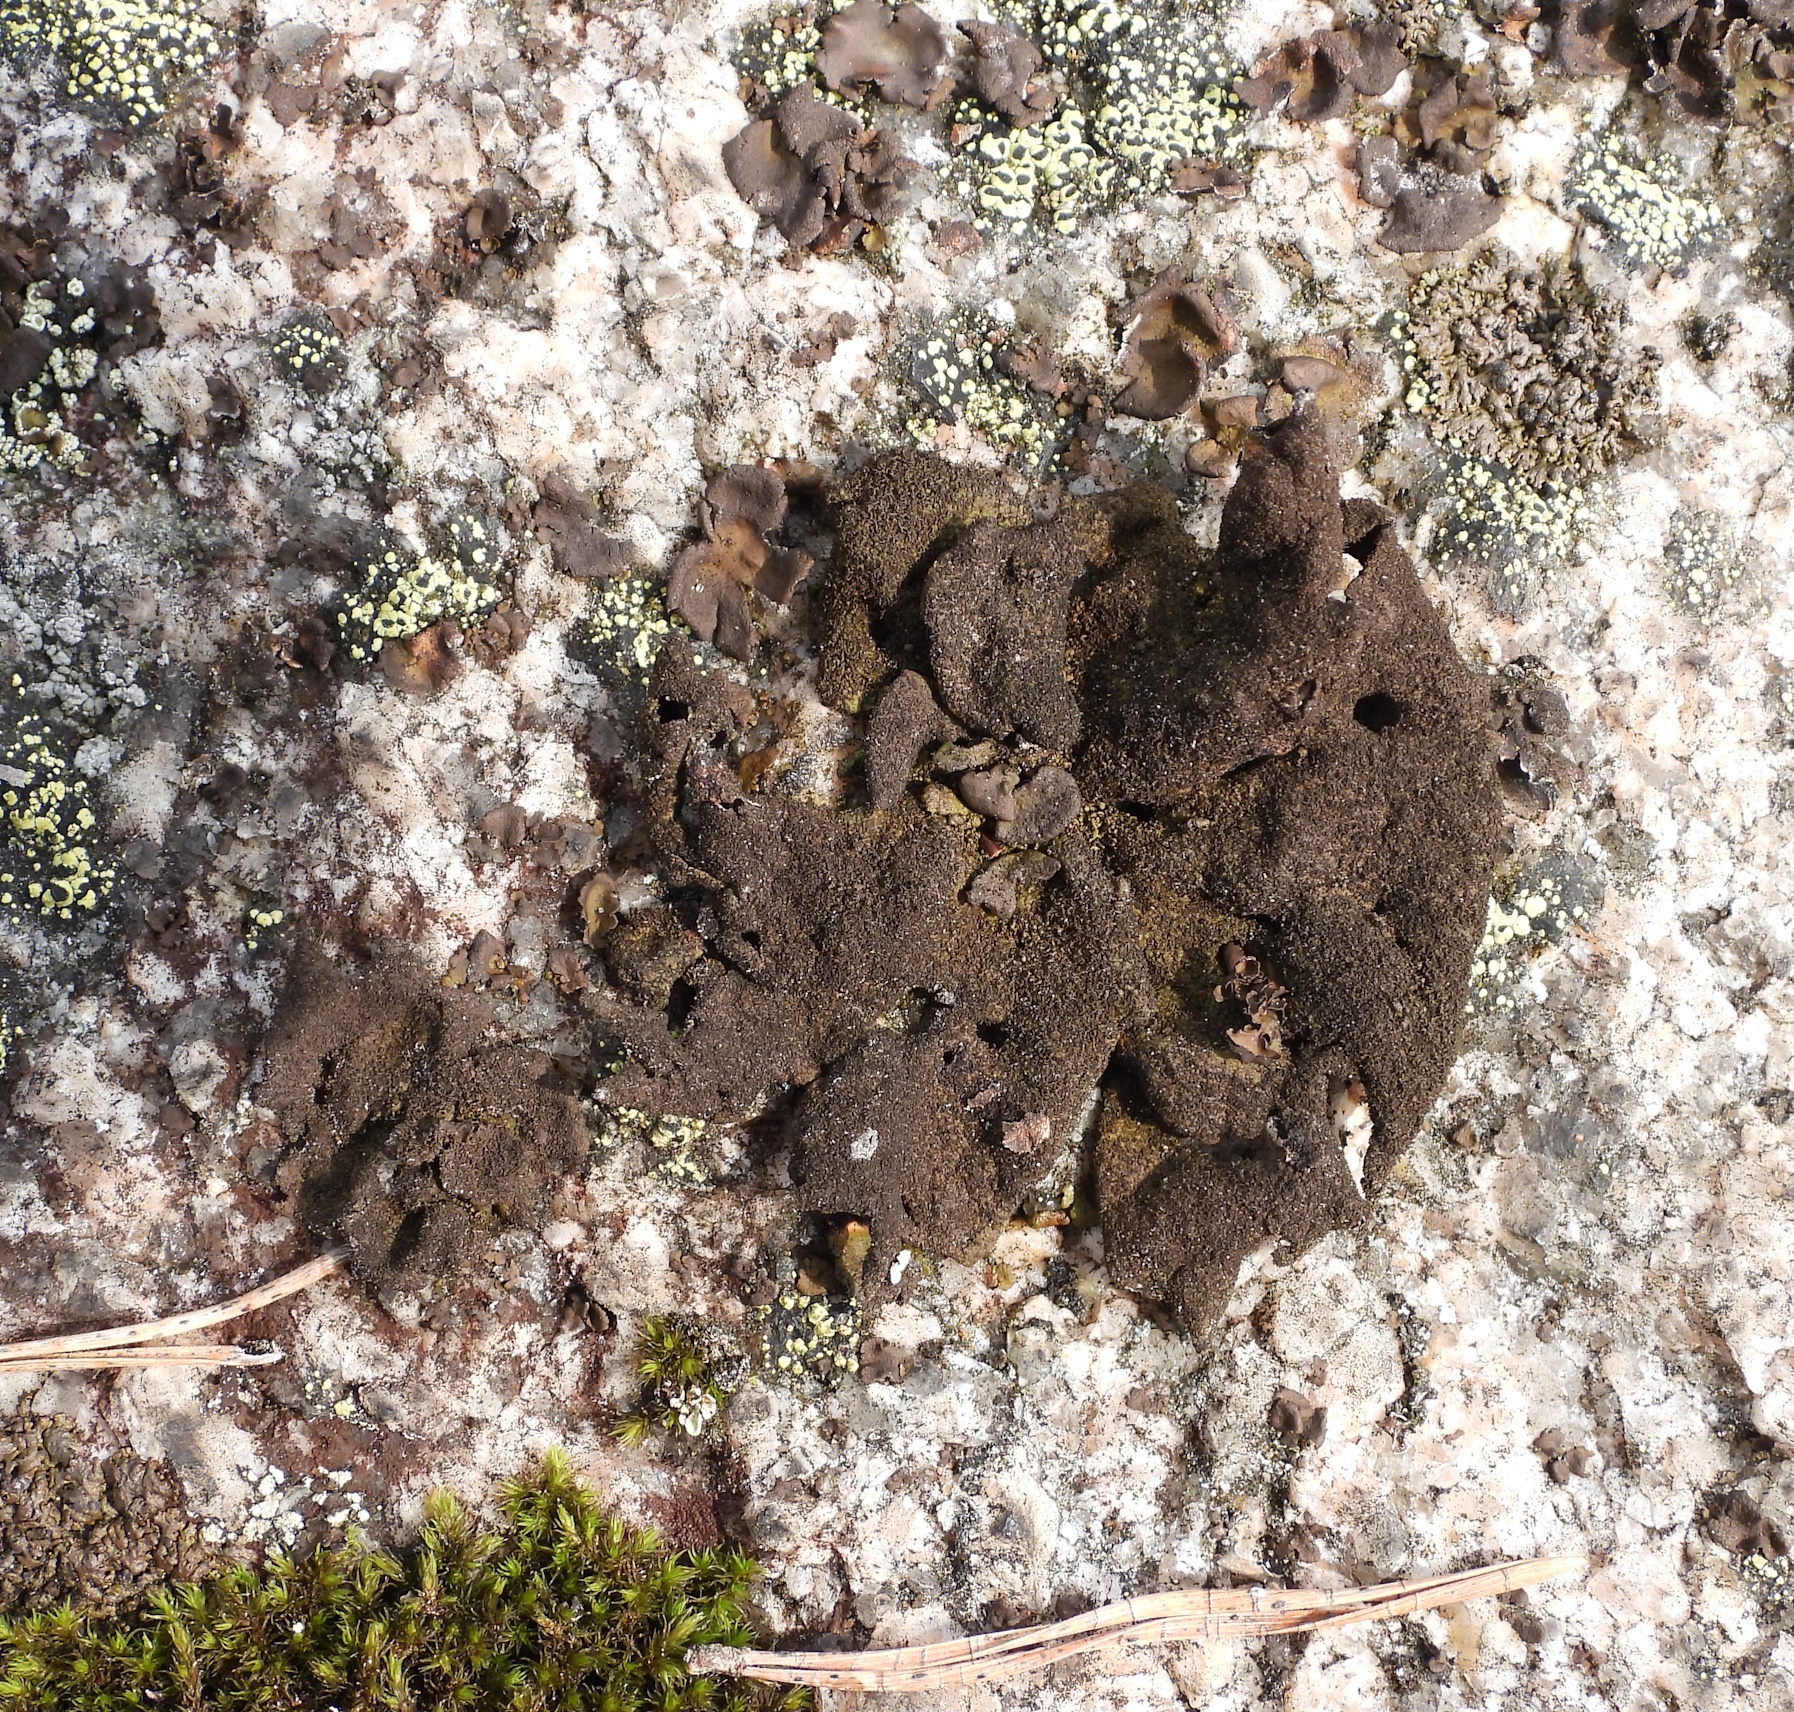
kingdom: Fungi
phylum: Ascomycota
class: Lecanoromycetes
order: Umbilicariales
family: Umbilicariaceae
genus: Umbilicaria
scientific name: Umbilicaria deusta
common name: Peppered rock tripe
